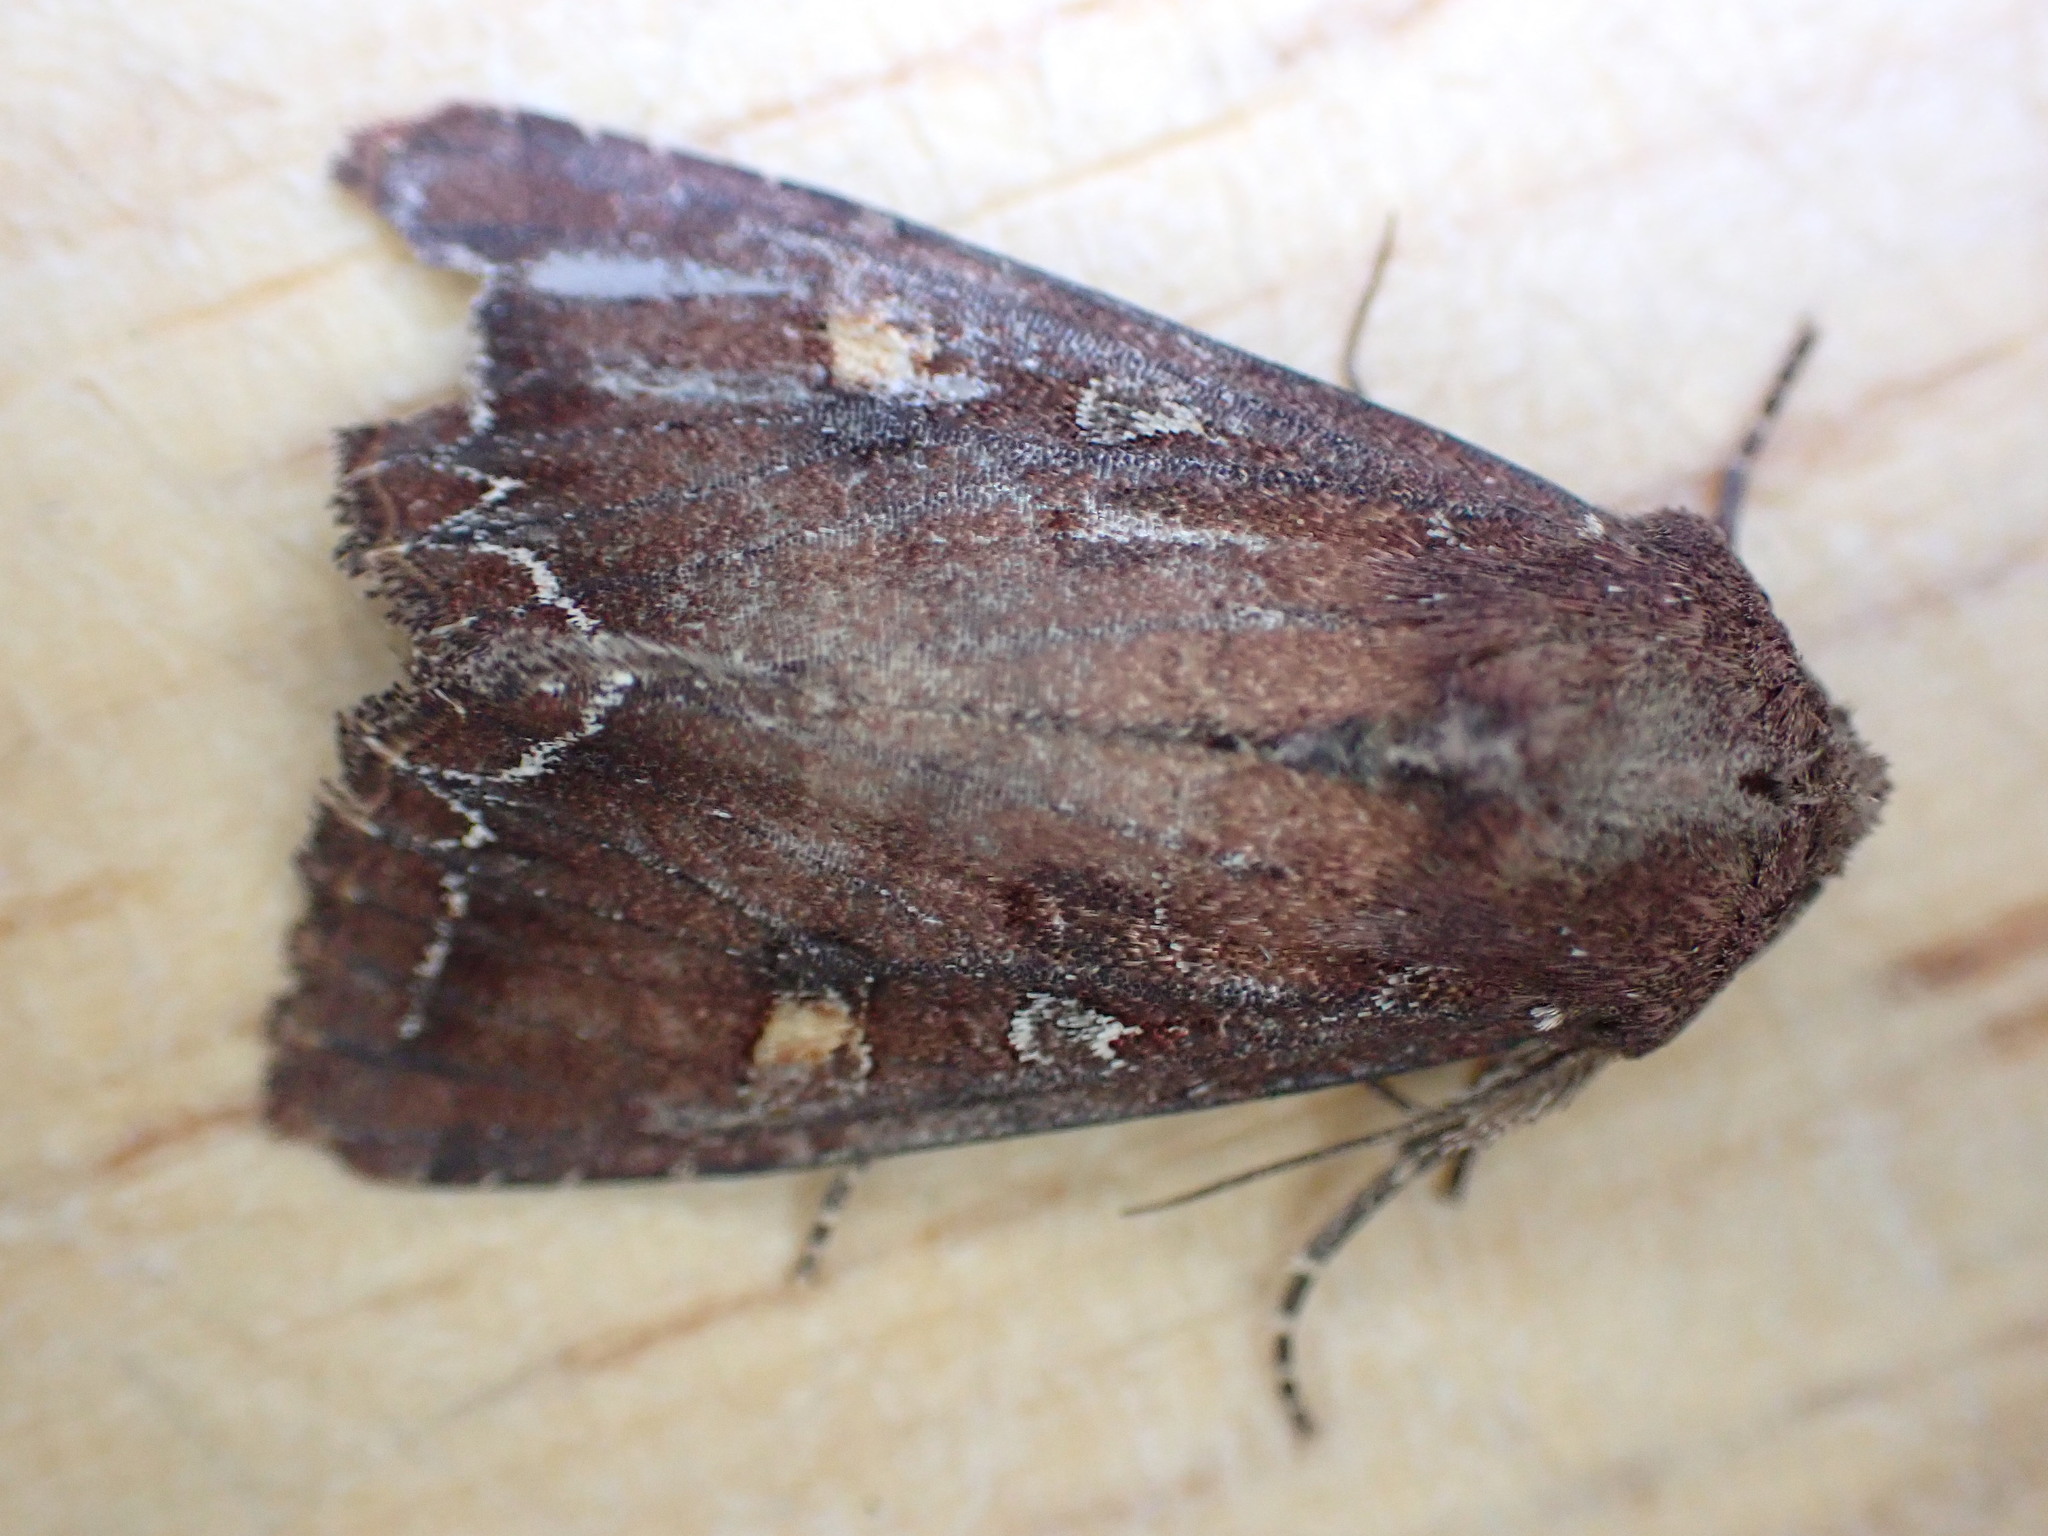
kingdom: Animalia
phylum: Arthropoda
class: Insecta
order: Lepidoptera
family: Noctuidae
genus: Lacanobia
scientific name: Lacanobia oleracea
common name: Bright-line brown-eye
